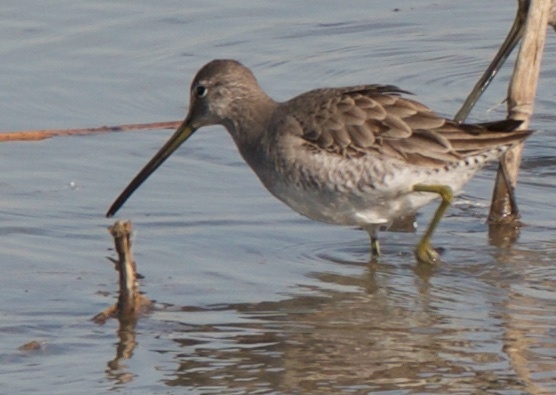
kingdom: Animalia
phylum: Chordata
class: Aves
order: Charadriiformes
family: Scolopacidae
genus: Limnodromus
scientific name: Limnodromus scolopaceus
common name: Long-billed dowitcher
